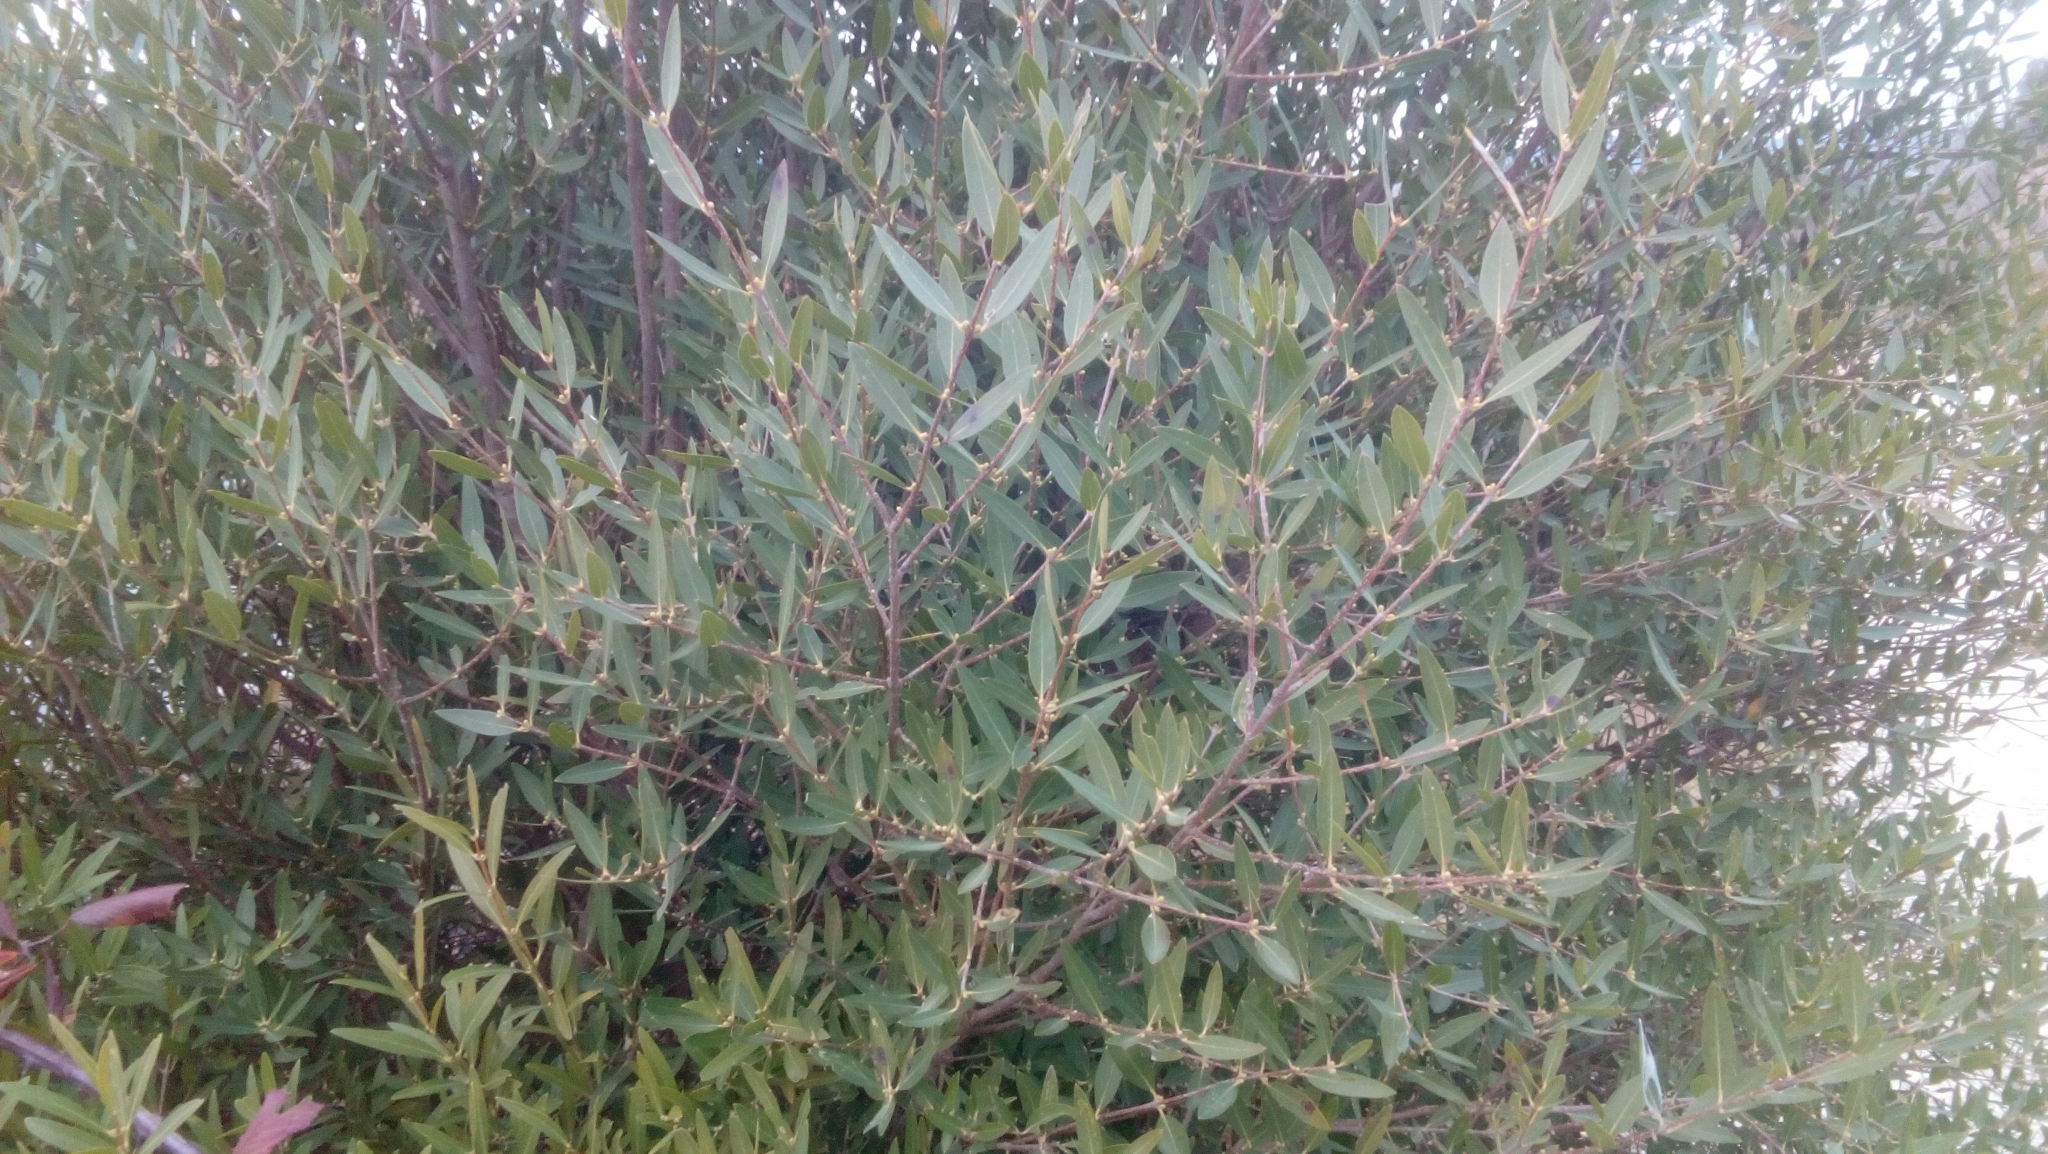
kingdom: Plantae
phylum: Tracheophyta
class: Magnoliopsida
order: Lamiales
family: Oleaceae
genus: Phillyrea
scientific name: Phillyrea angustifolia
